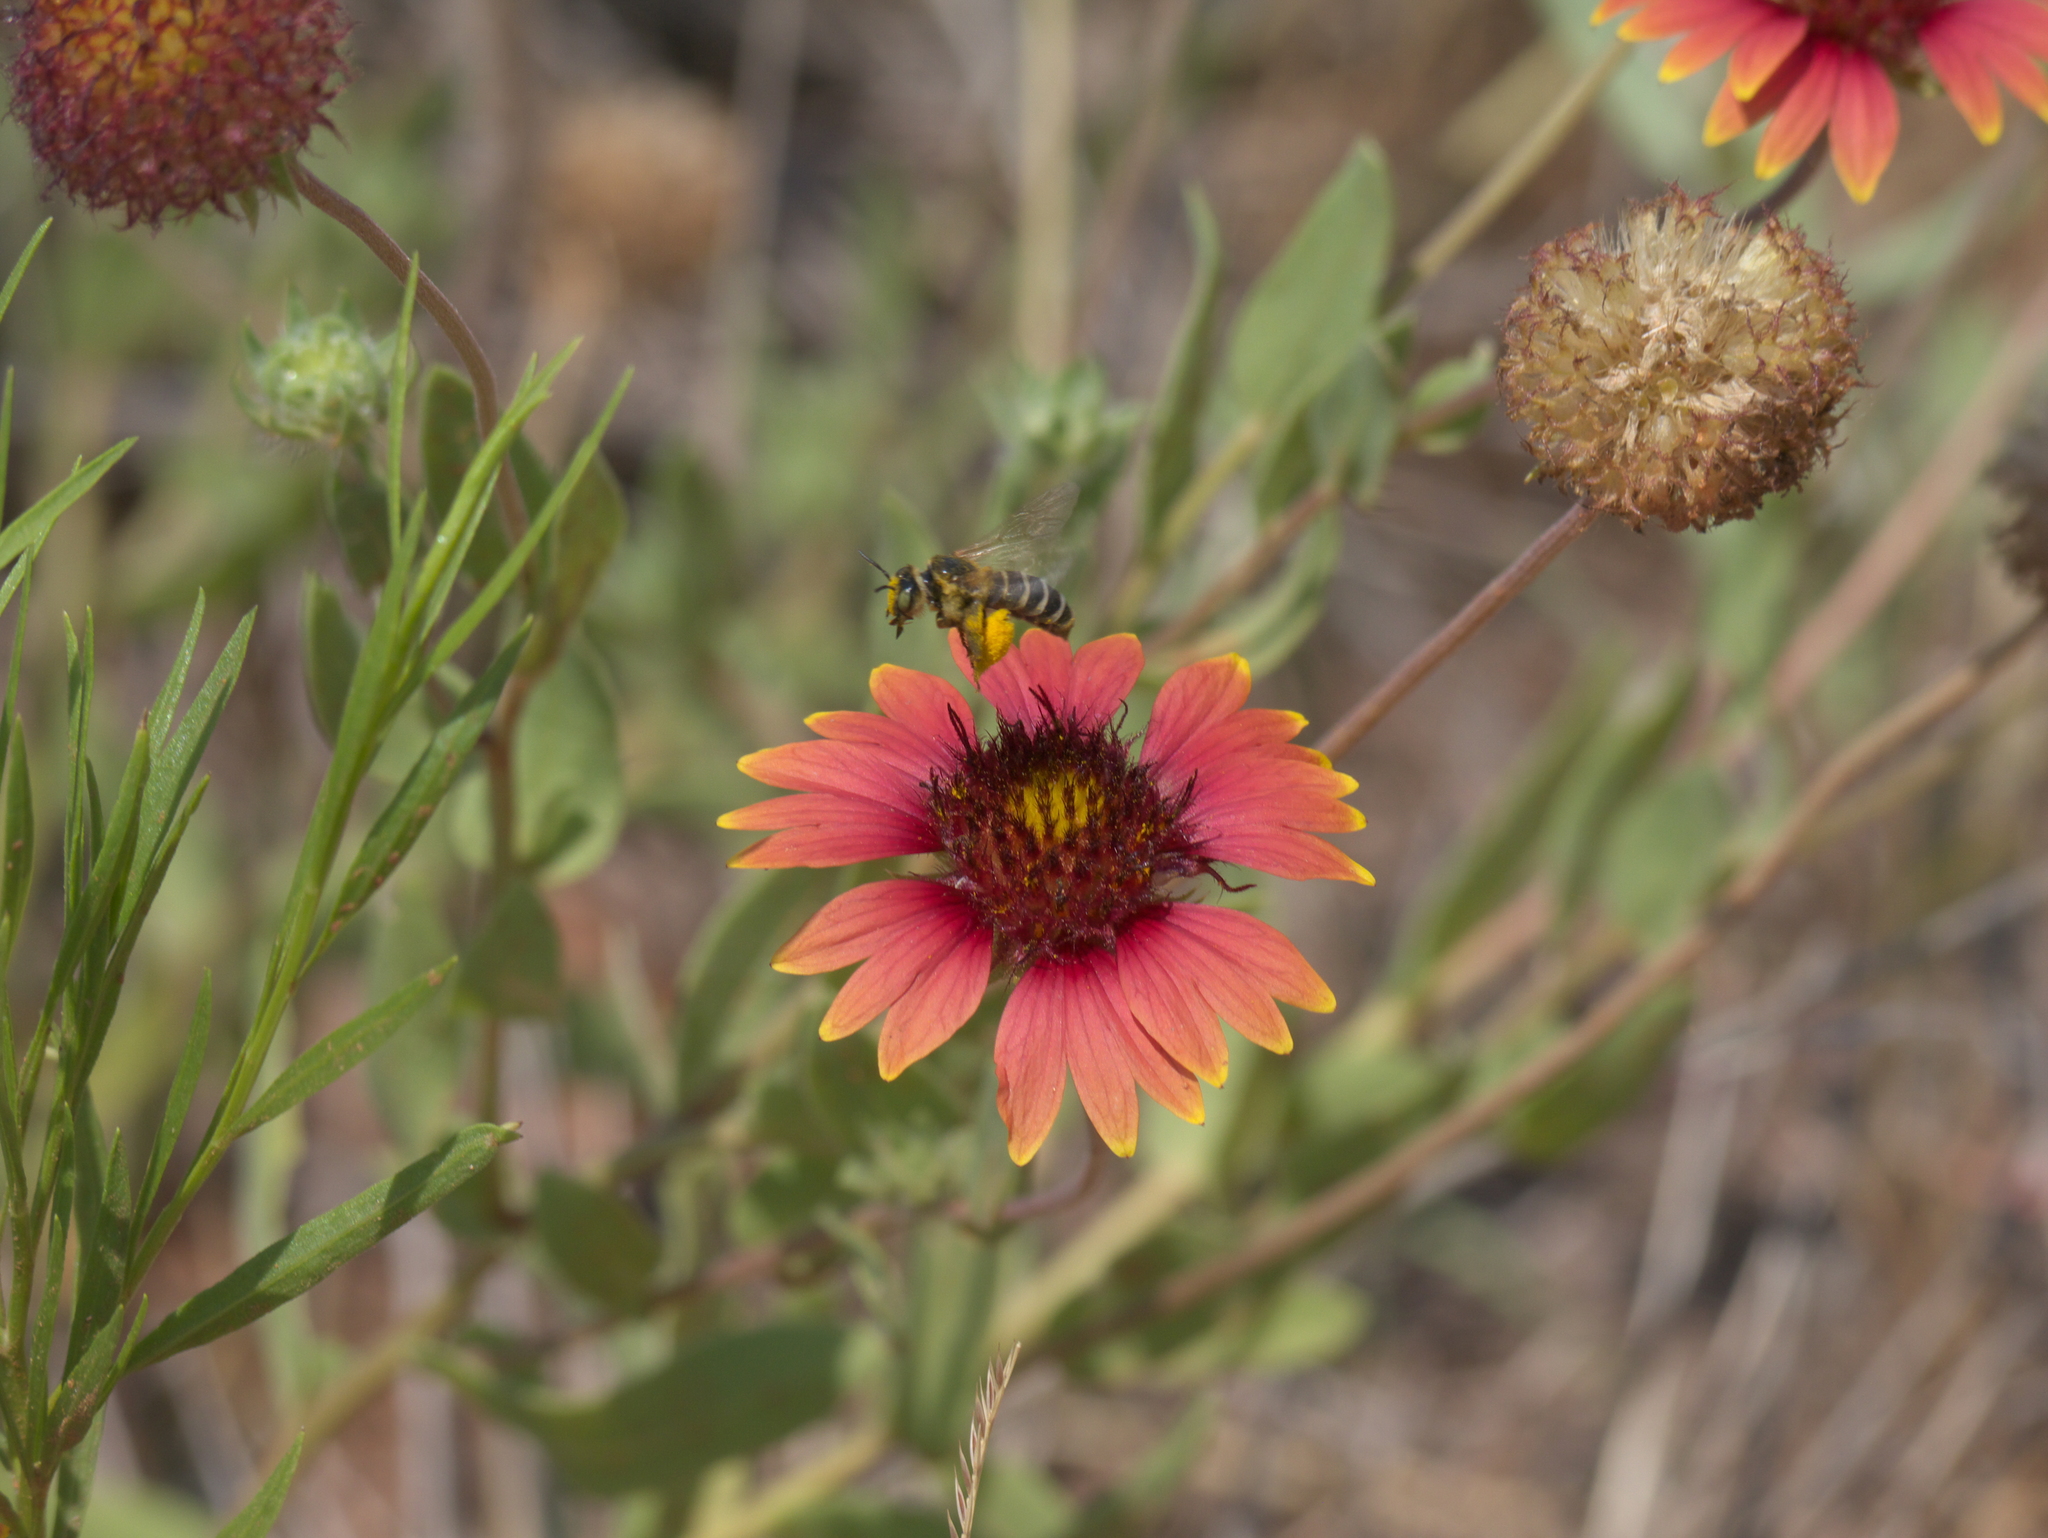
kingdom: Plantae
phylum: Tracheophyta
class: Magnoliopsida
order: Asterales
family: Asteraceae
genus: Gaillardia
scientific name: Gaillardia pulchella
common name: Firewheel
